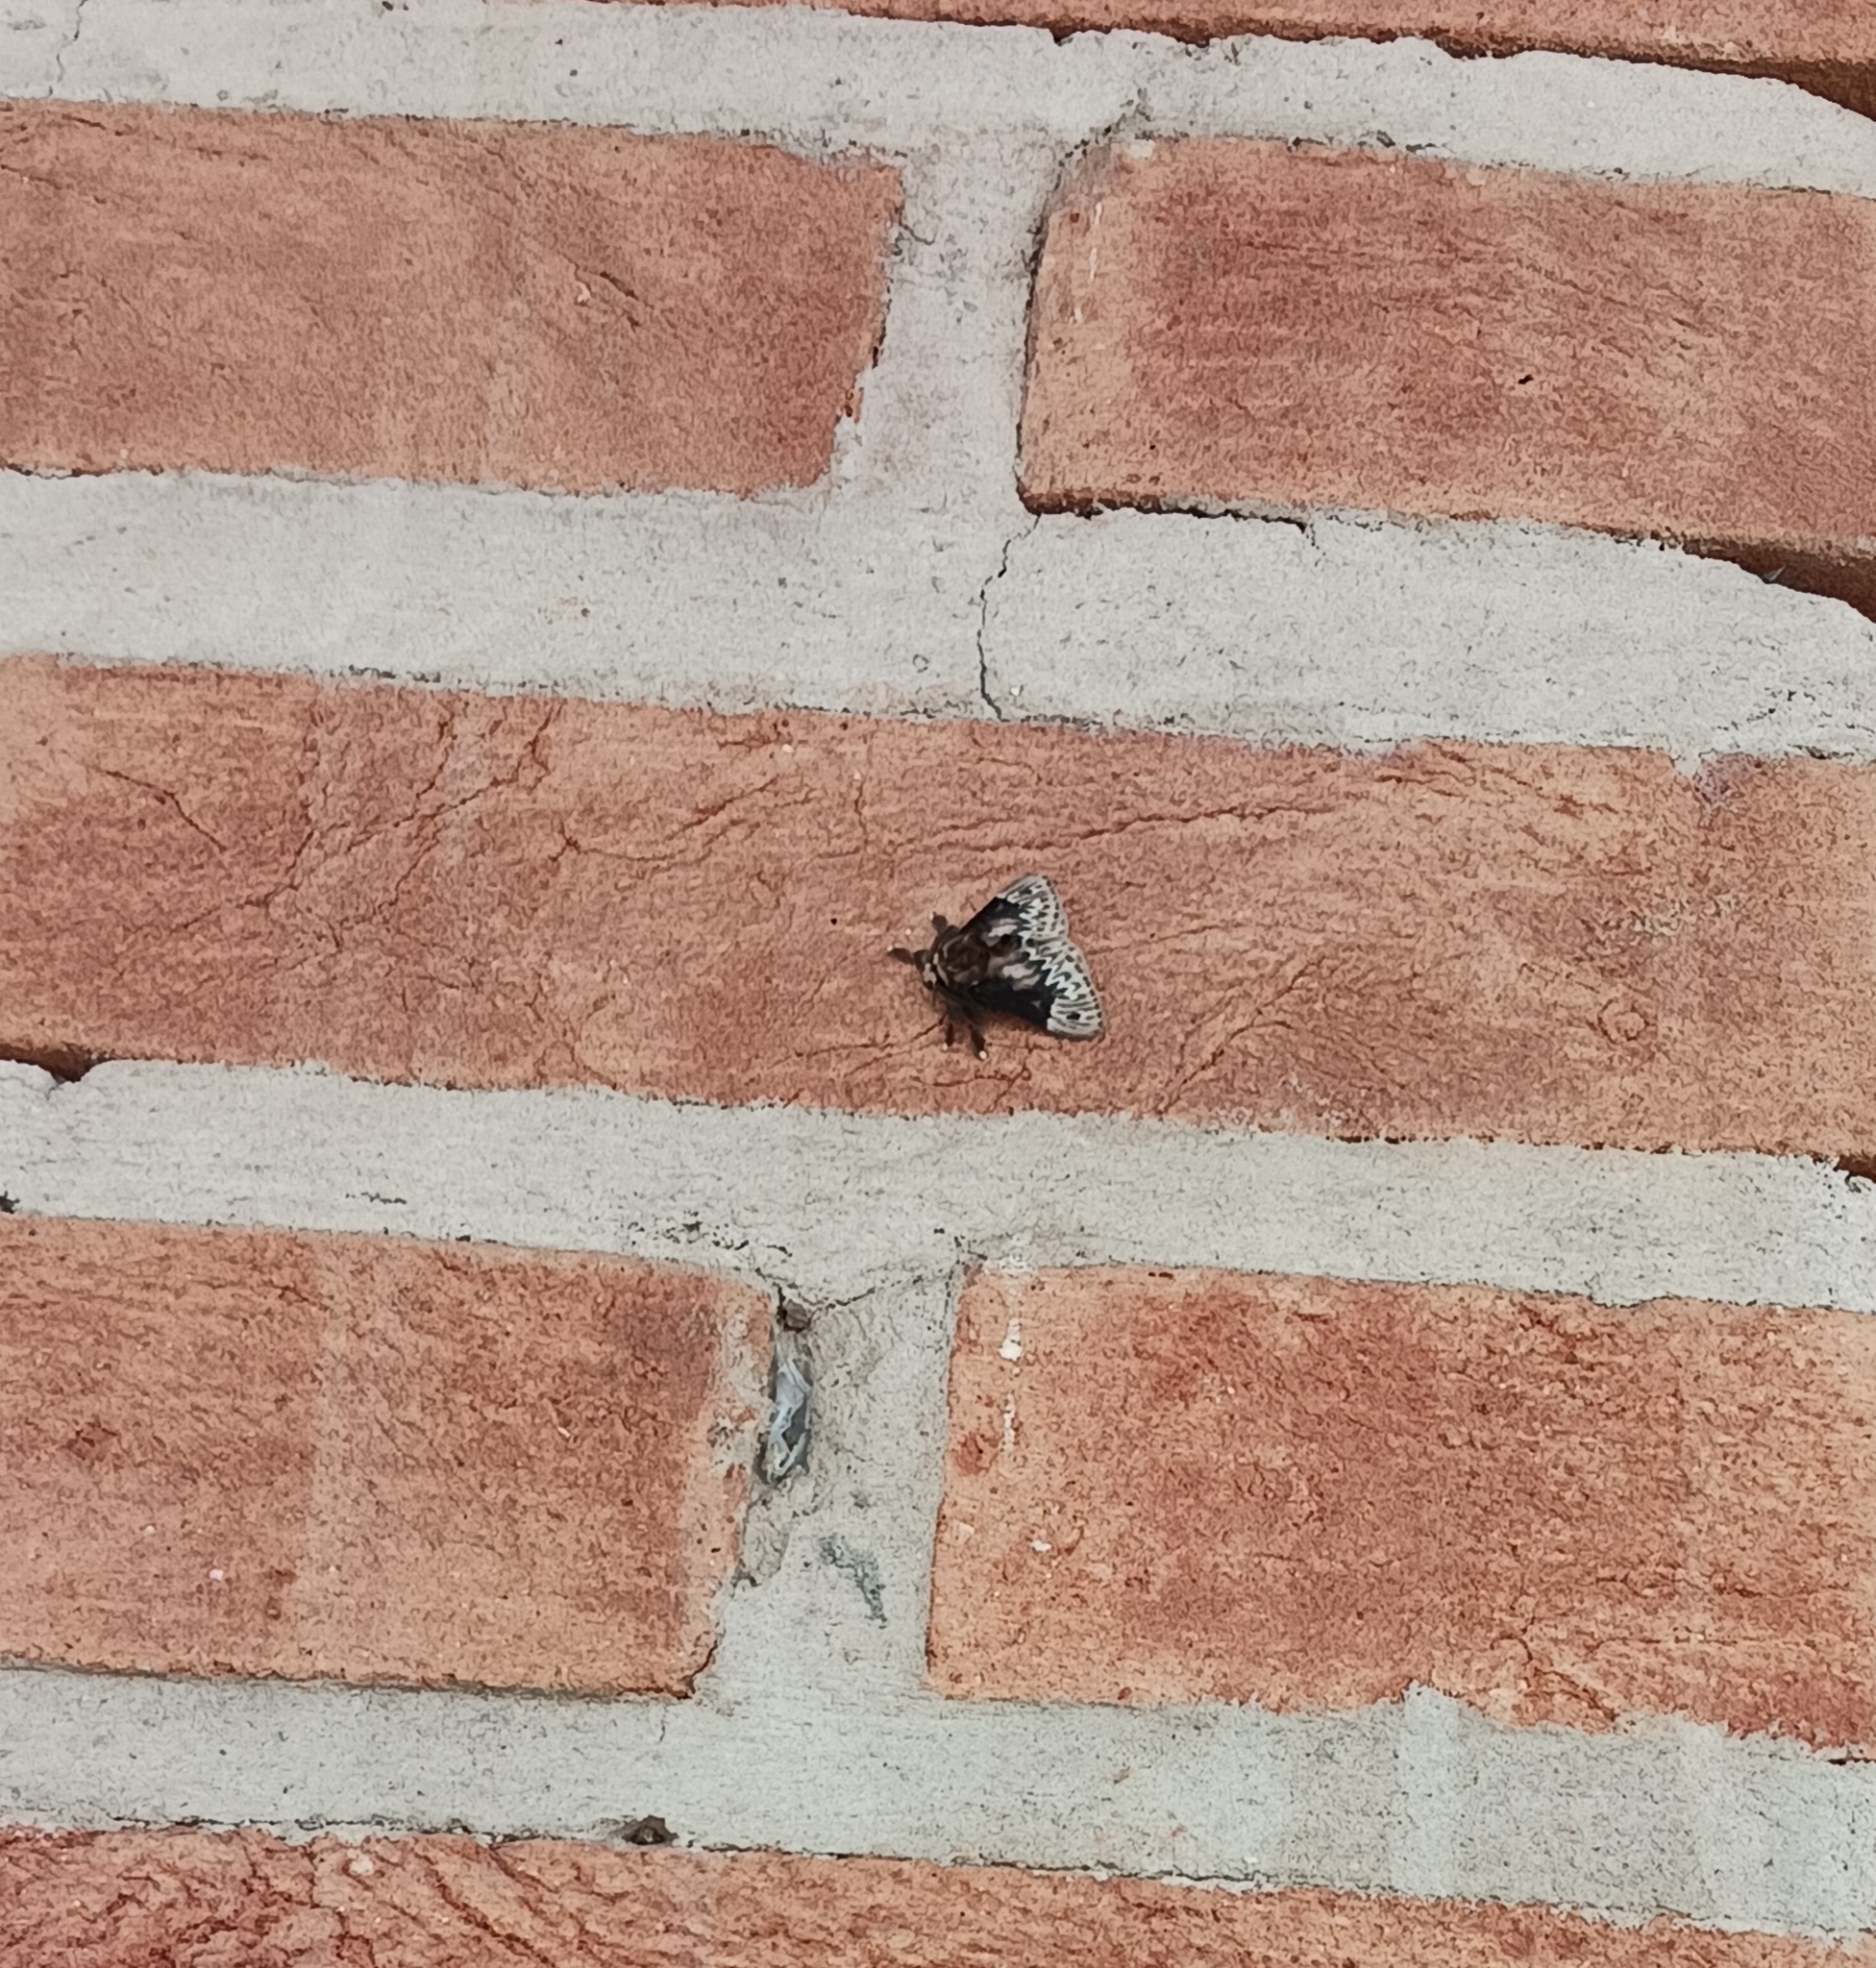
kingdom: Animalia
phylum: Arthropoda
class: Insecta
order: Lepidoptera
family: Megalopygidae
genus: Podalia
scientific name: Podalia
